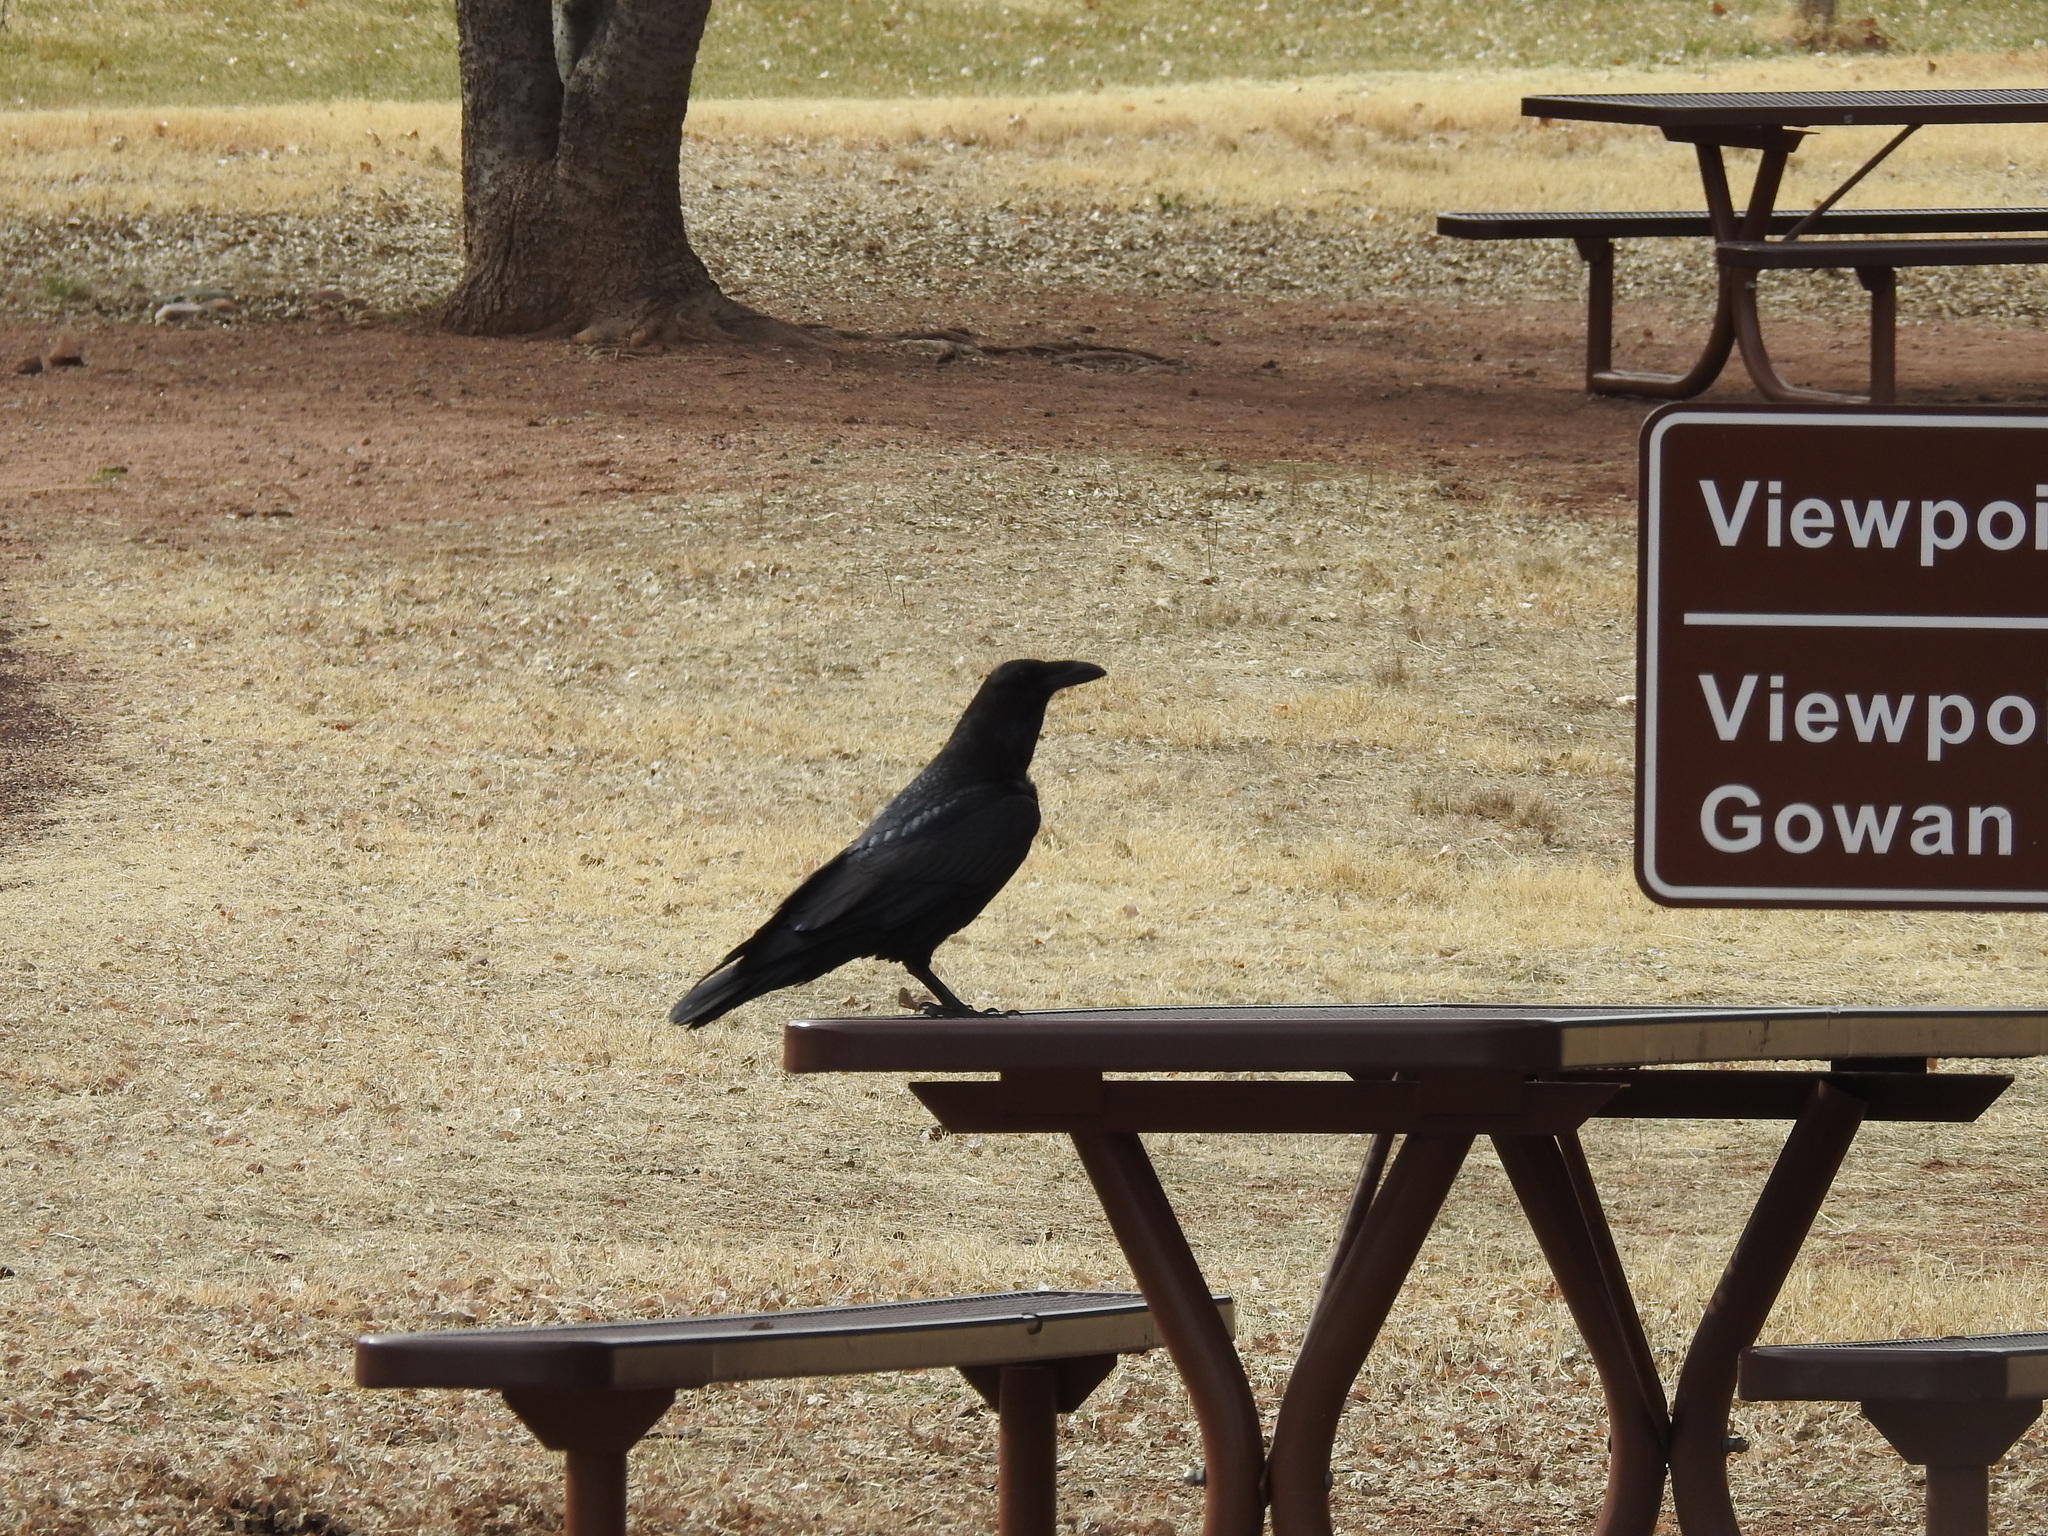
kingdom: Animalia
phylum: Chordata
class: Aves
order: Passeriformes
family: Corvidae
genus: Corvus
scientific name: Corvus corax
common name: Common raven
